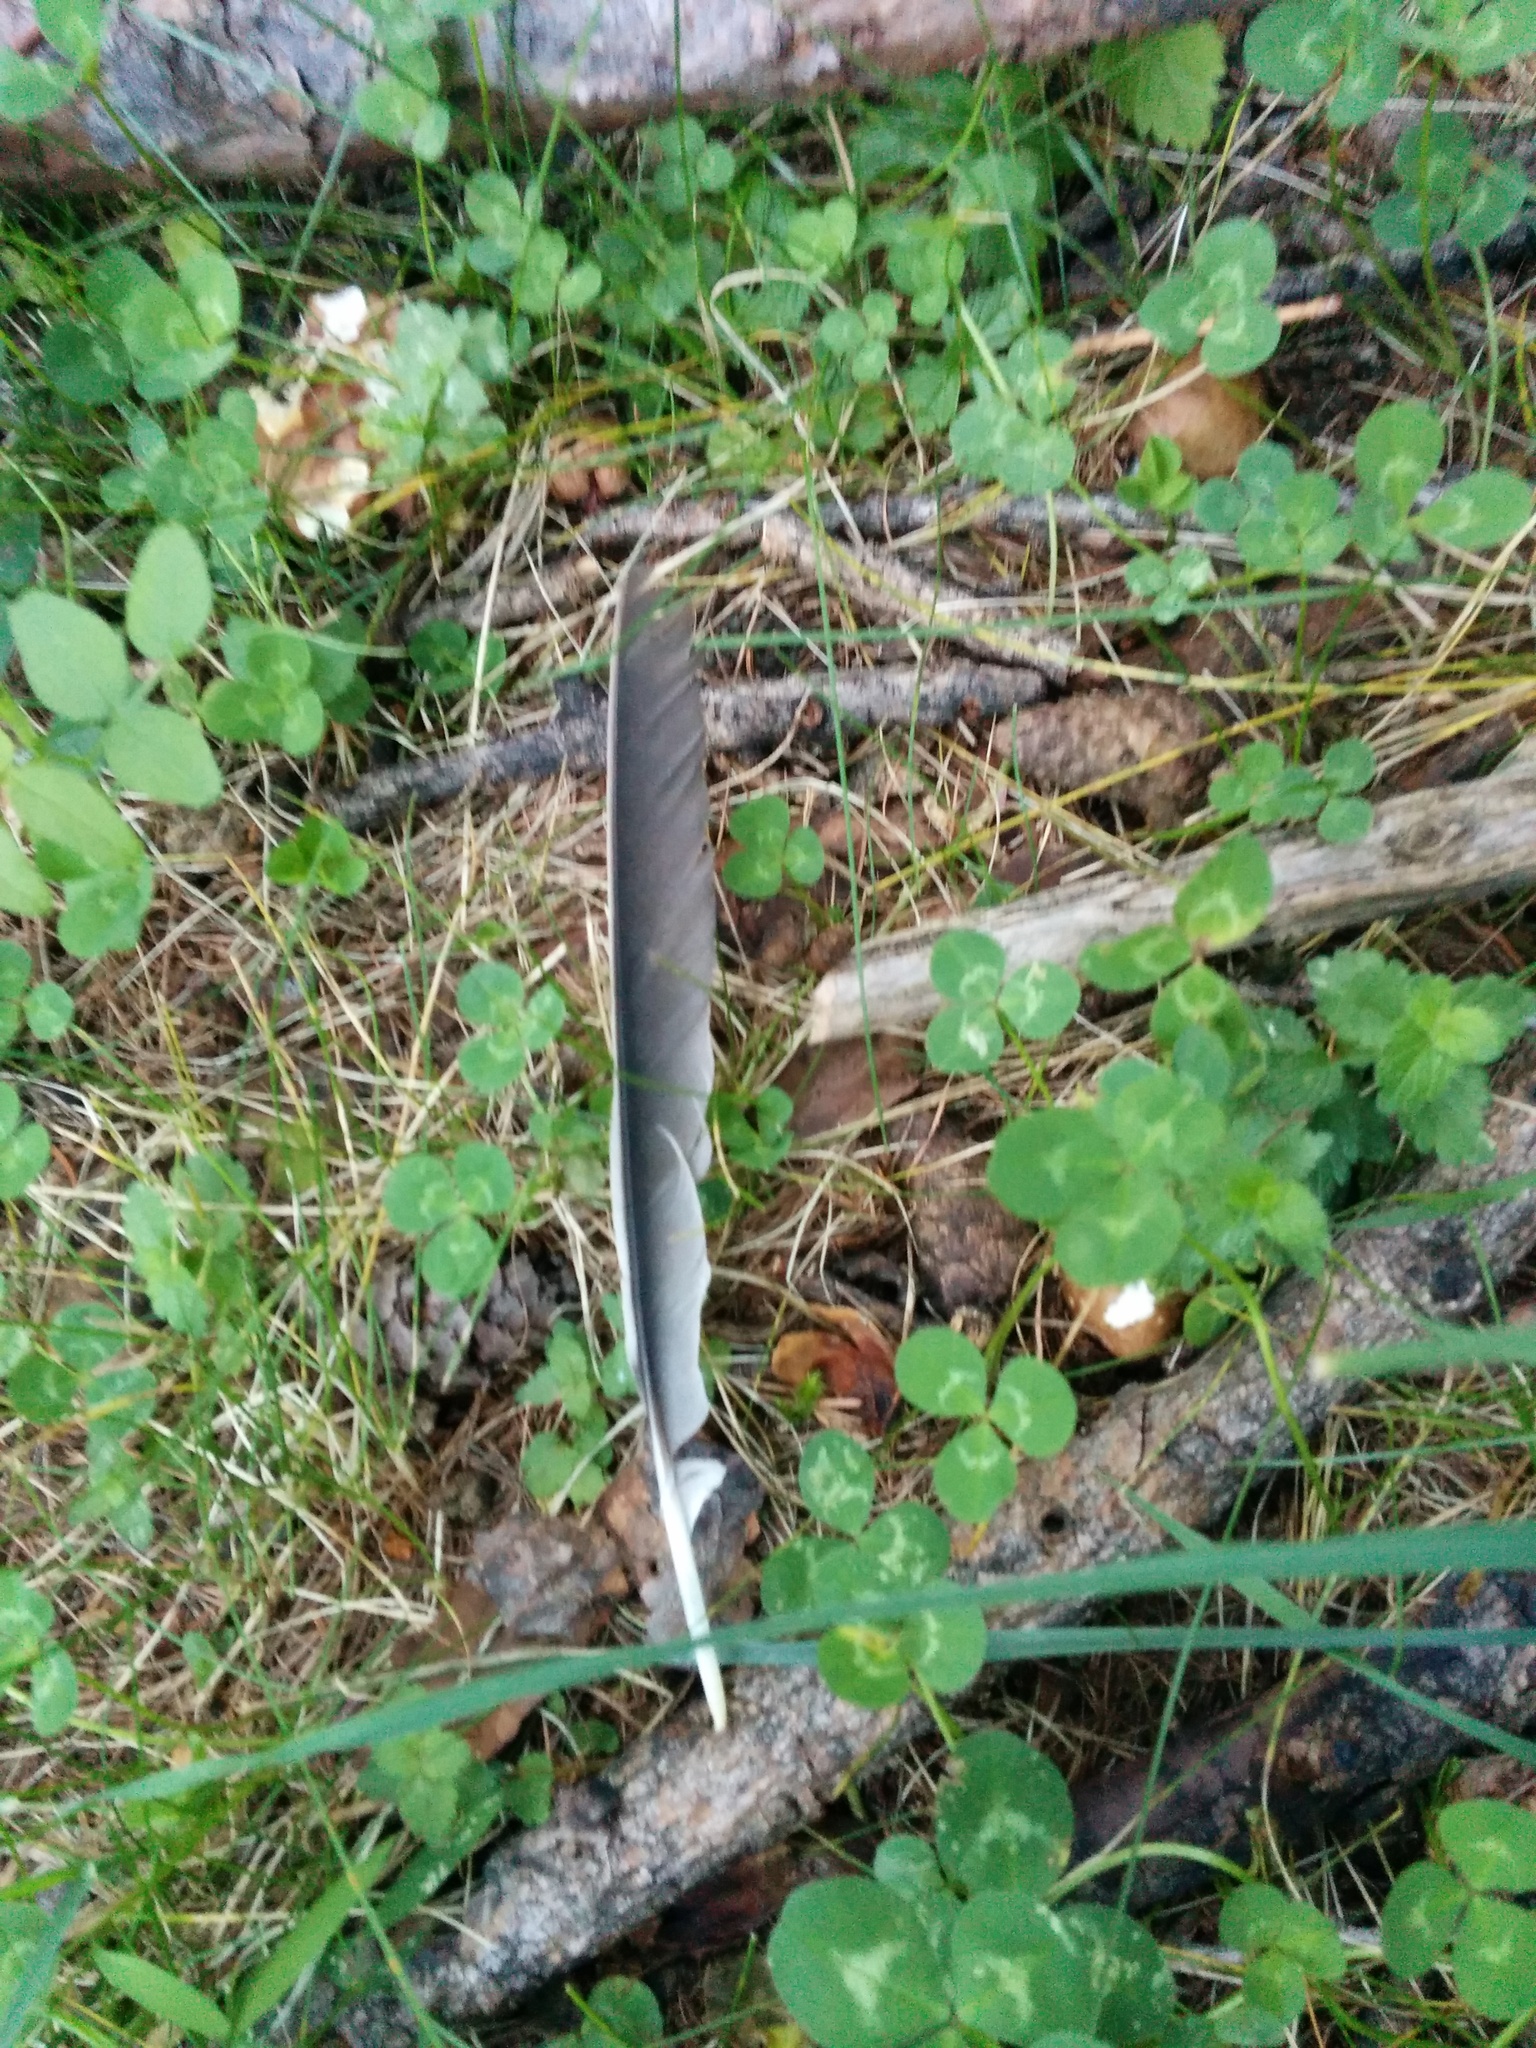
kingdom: Animalia
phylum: Chordata
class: Aves
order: Passeriformes
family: Corvidae
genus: Garrulus
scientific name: Garrulus glandarius
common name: Eurasian jay
